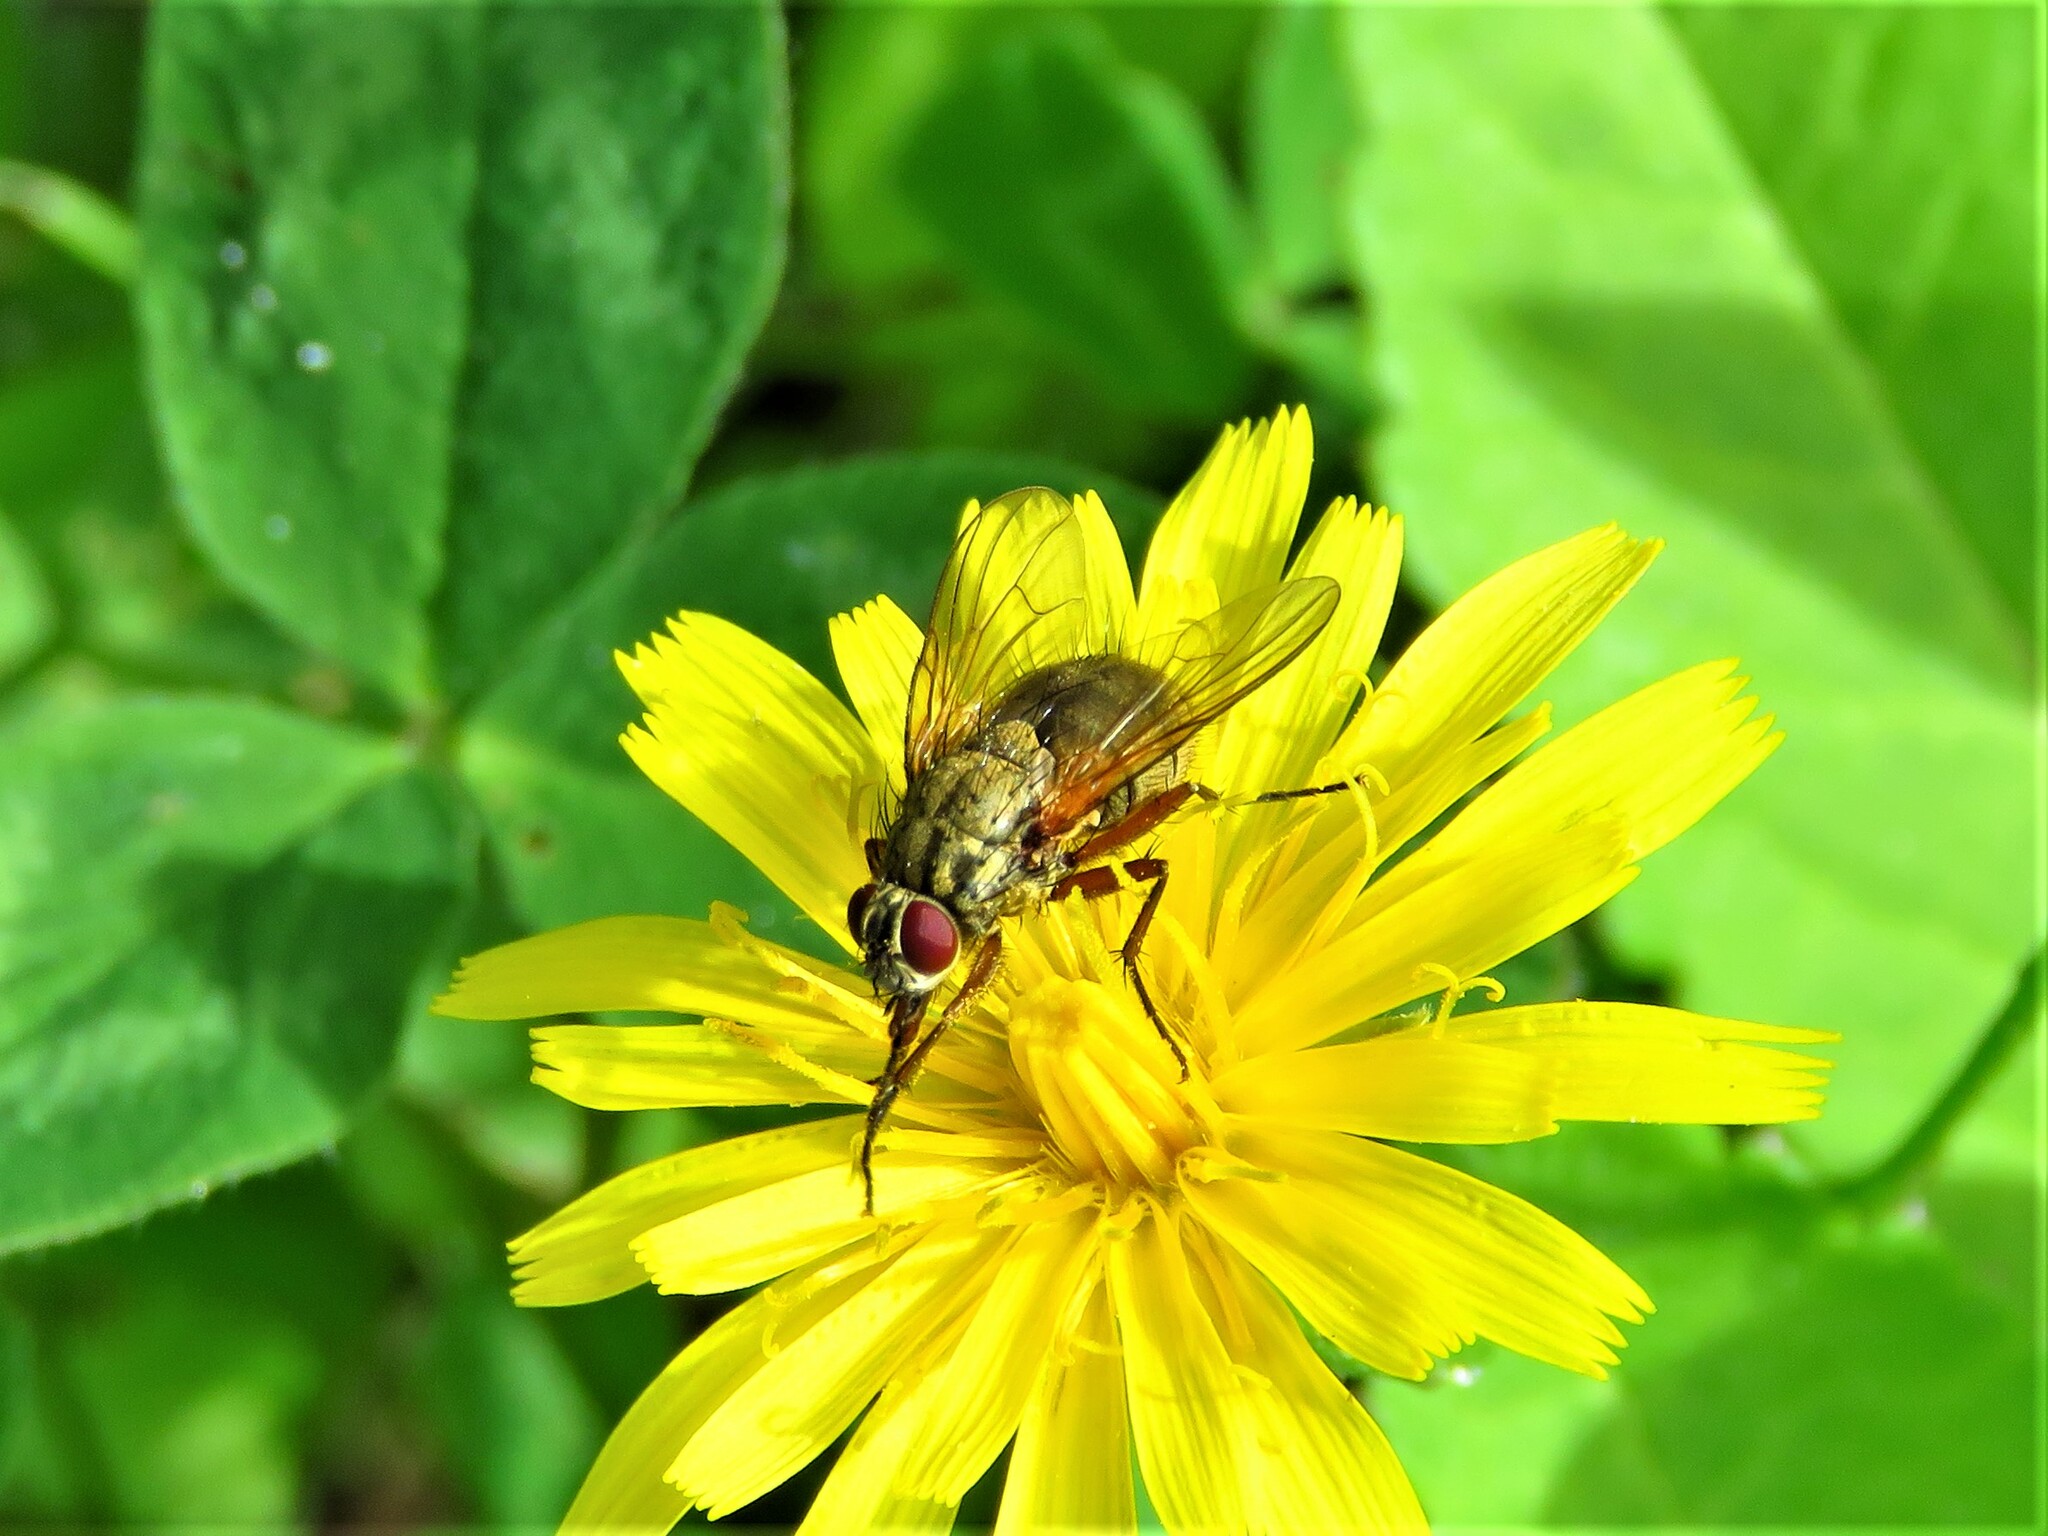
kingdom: Animalia
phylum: Arthropoda
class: Insecta
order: Diptera
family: Muscidae
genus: Phaonia
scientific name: Phaonia angelicae
